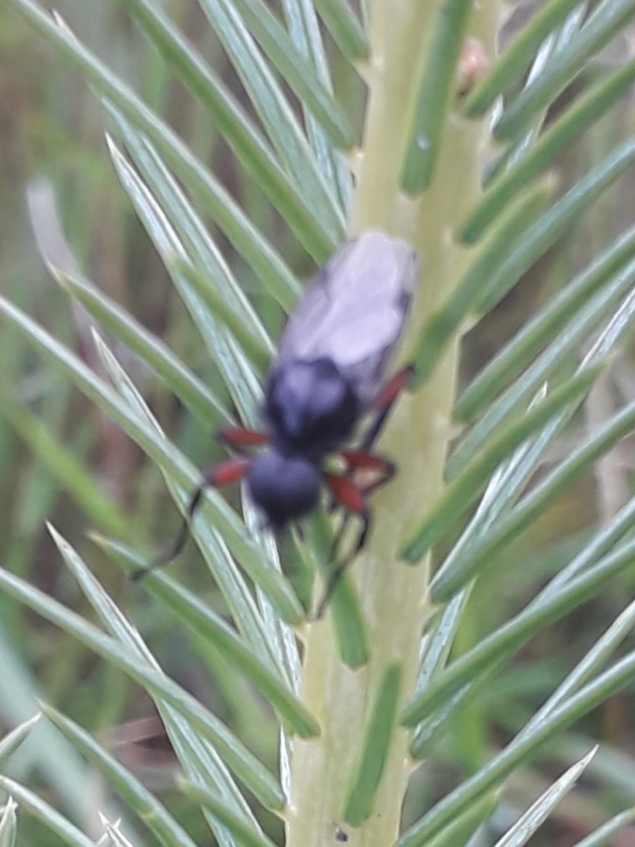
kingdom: Animalia
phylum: Arthropoda
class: Insecta
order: Diptera
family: Bibionidae
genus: Bibio
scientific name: Bibio pomonae
